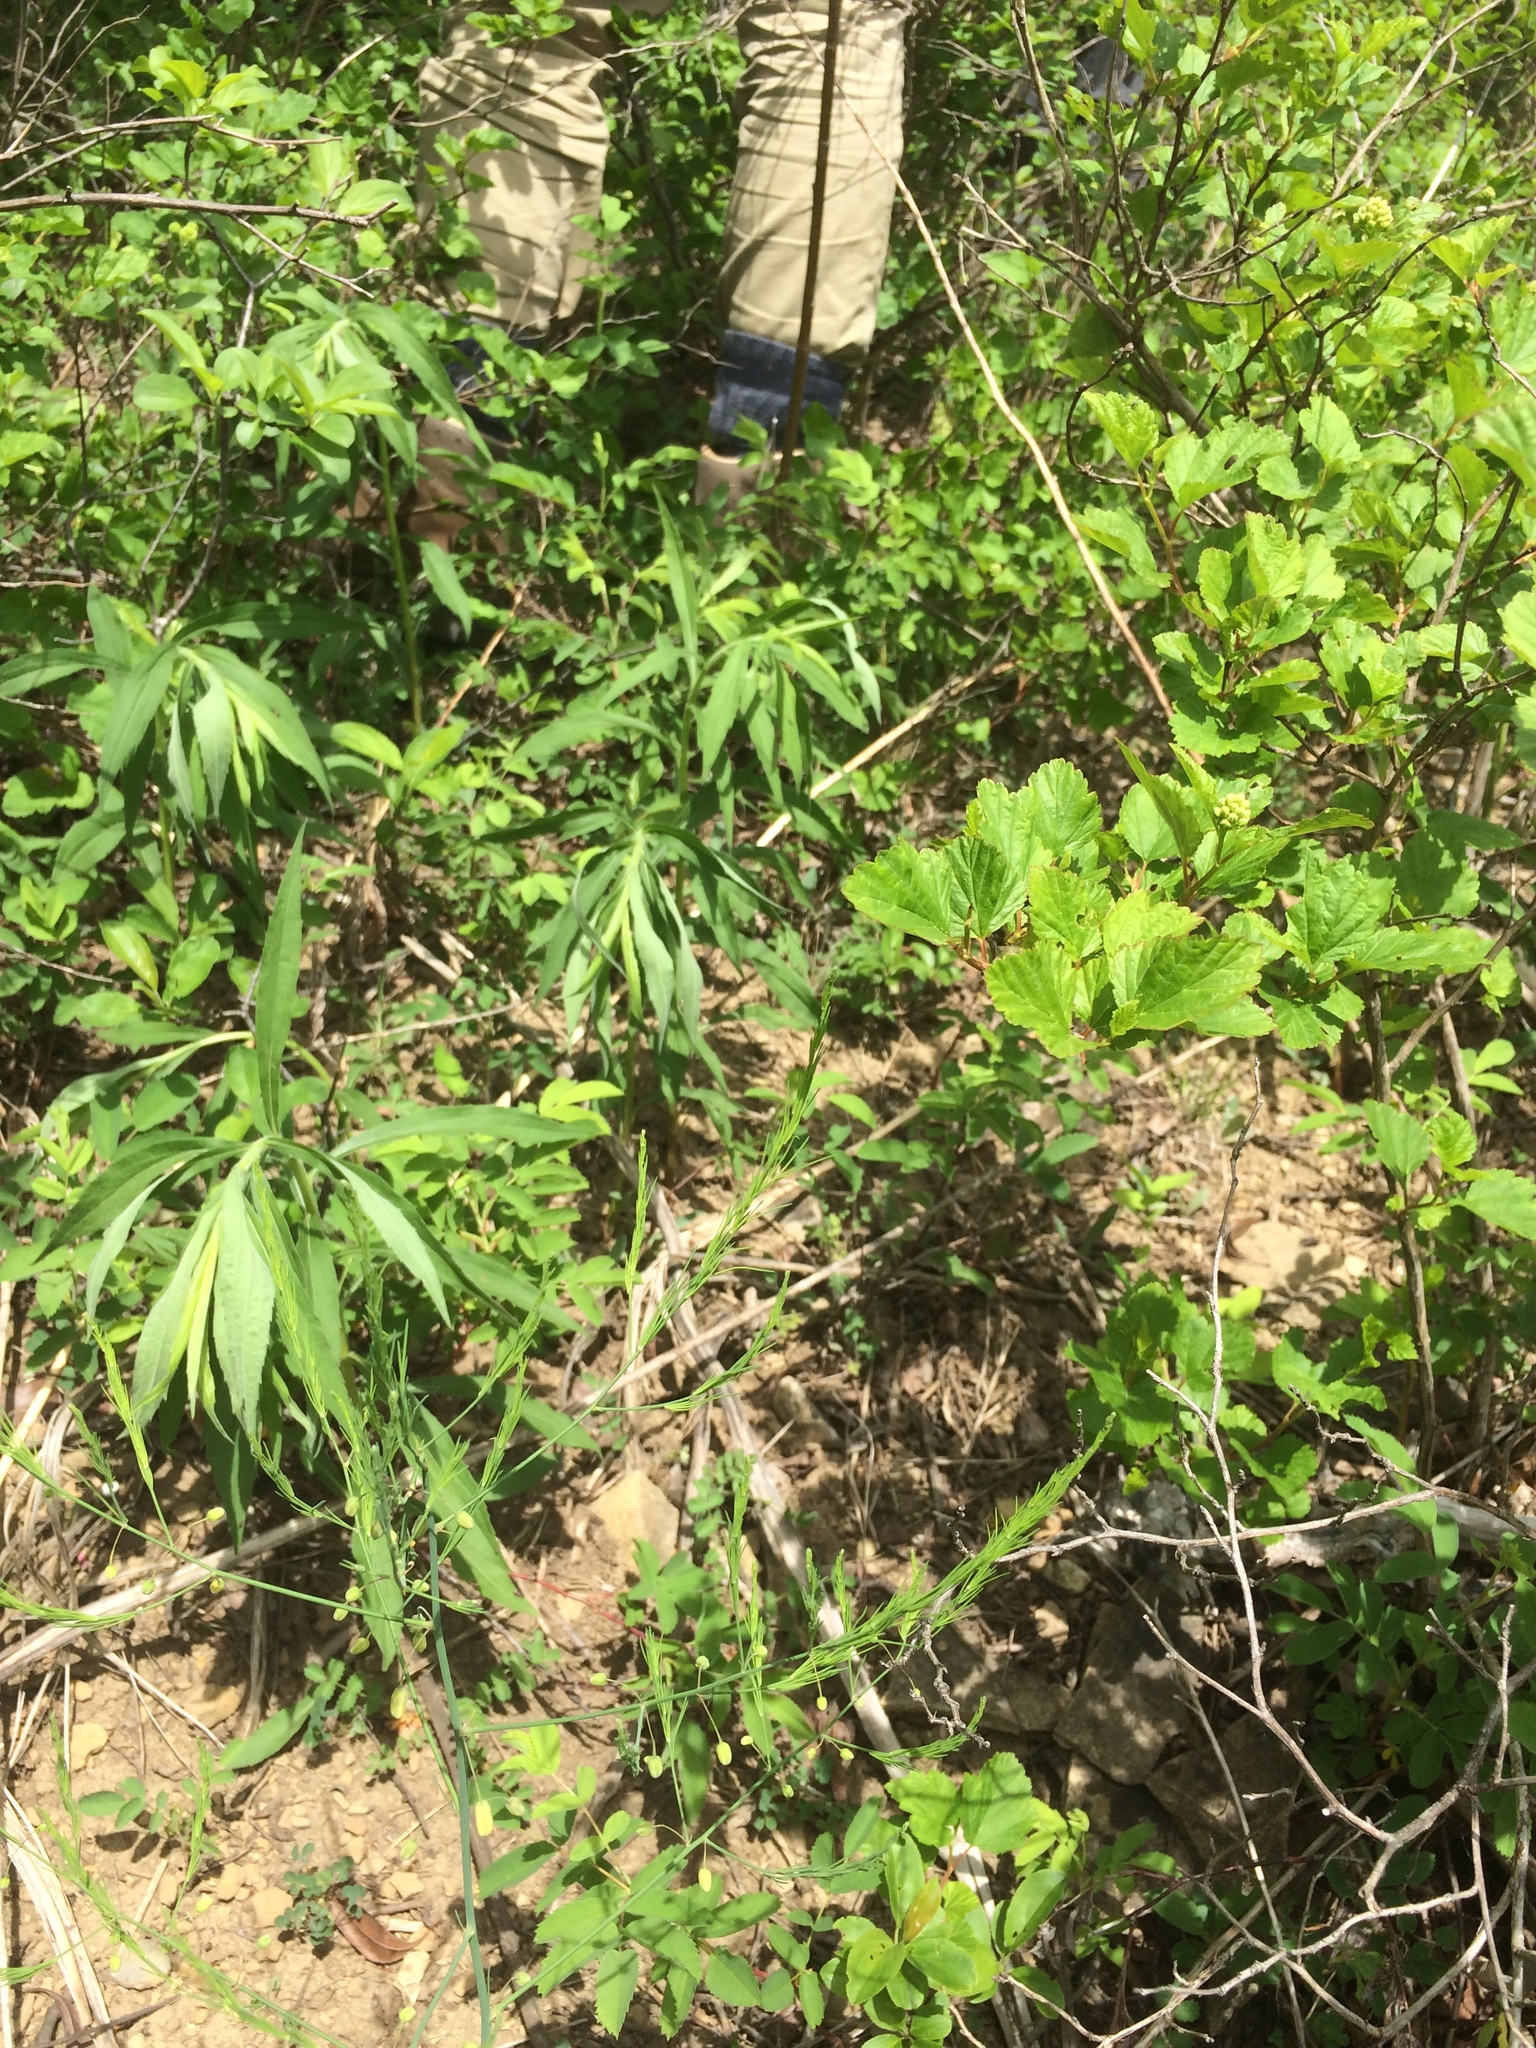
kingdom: Plantae
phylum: Tracheophyta
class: Liliopsida
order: Asparagales
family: Asparagaceae
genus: Asparagus
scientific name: Asparagus officinalis
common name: Garden asparagus
